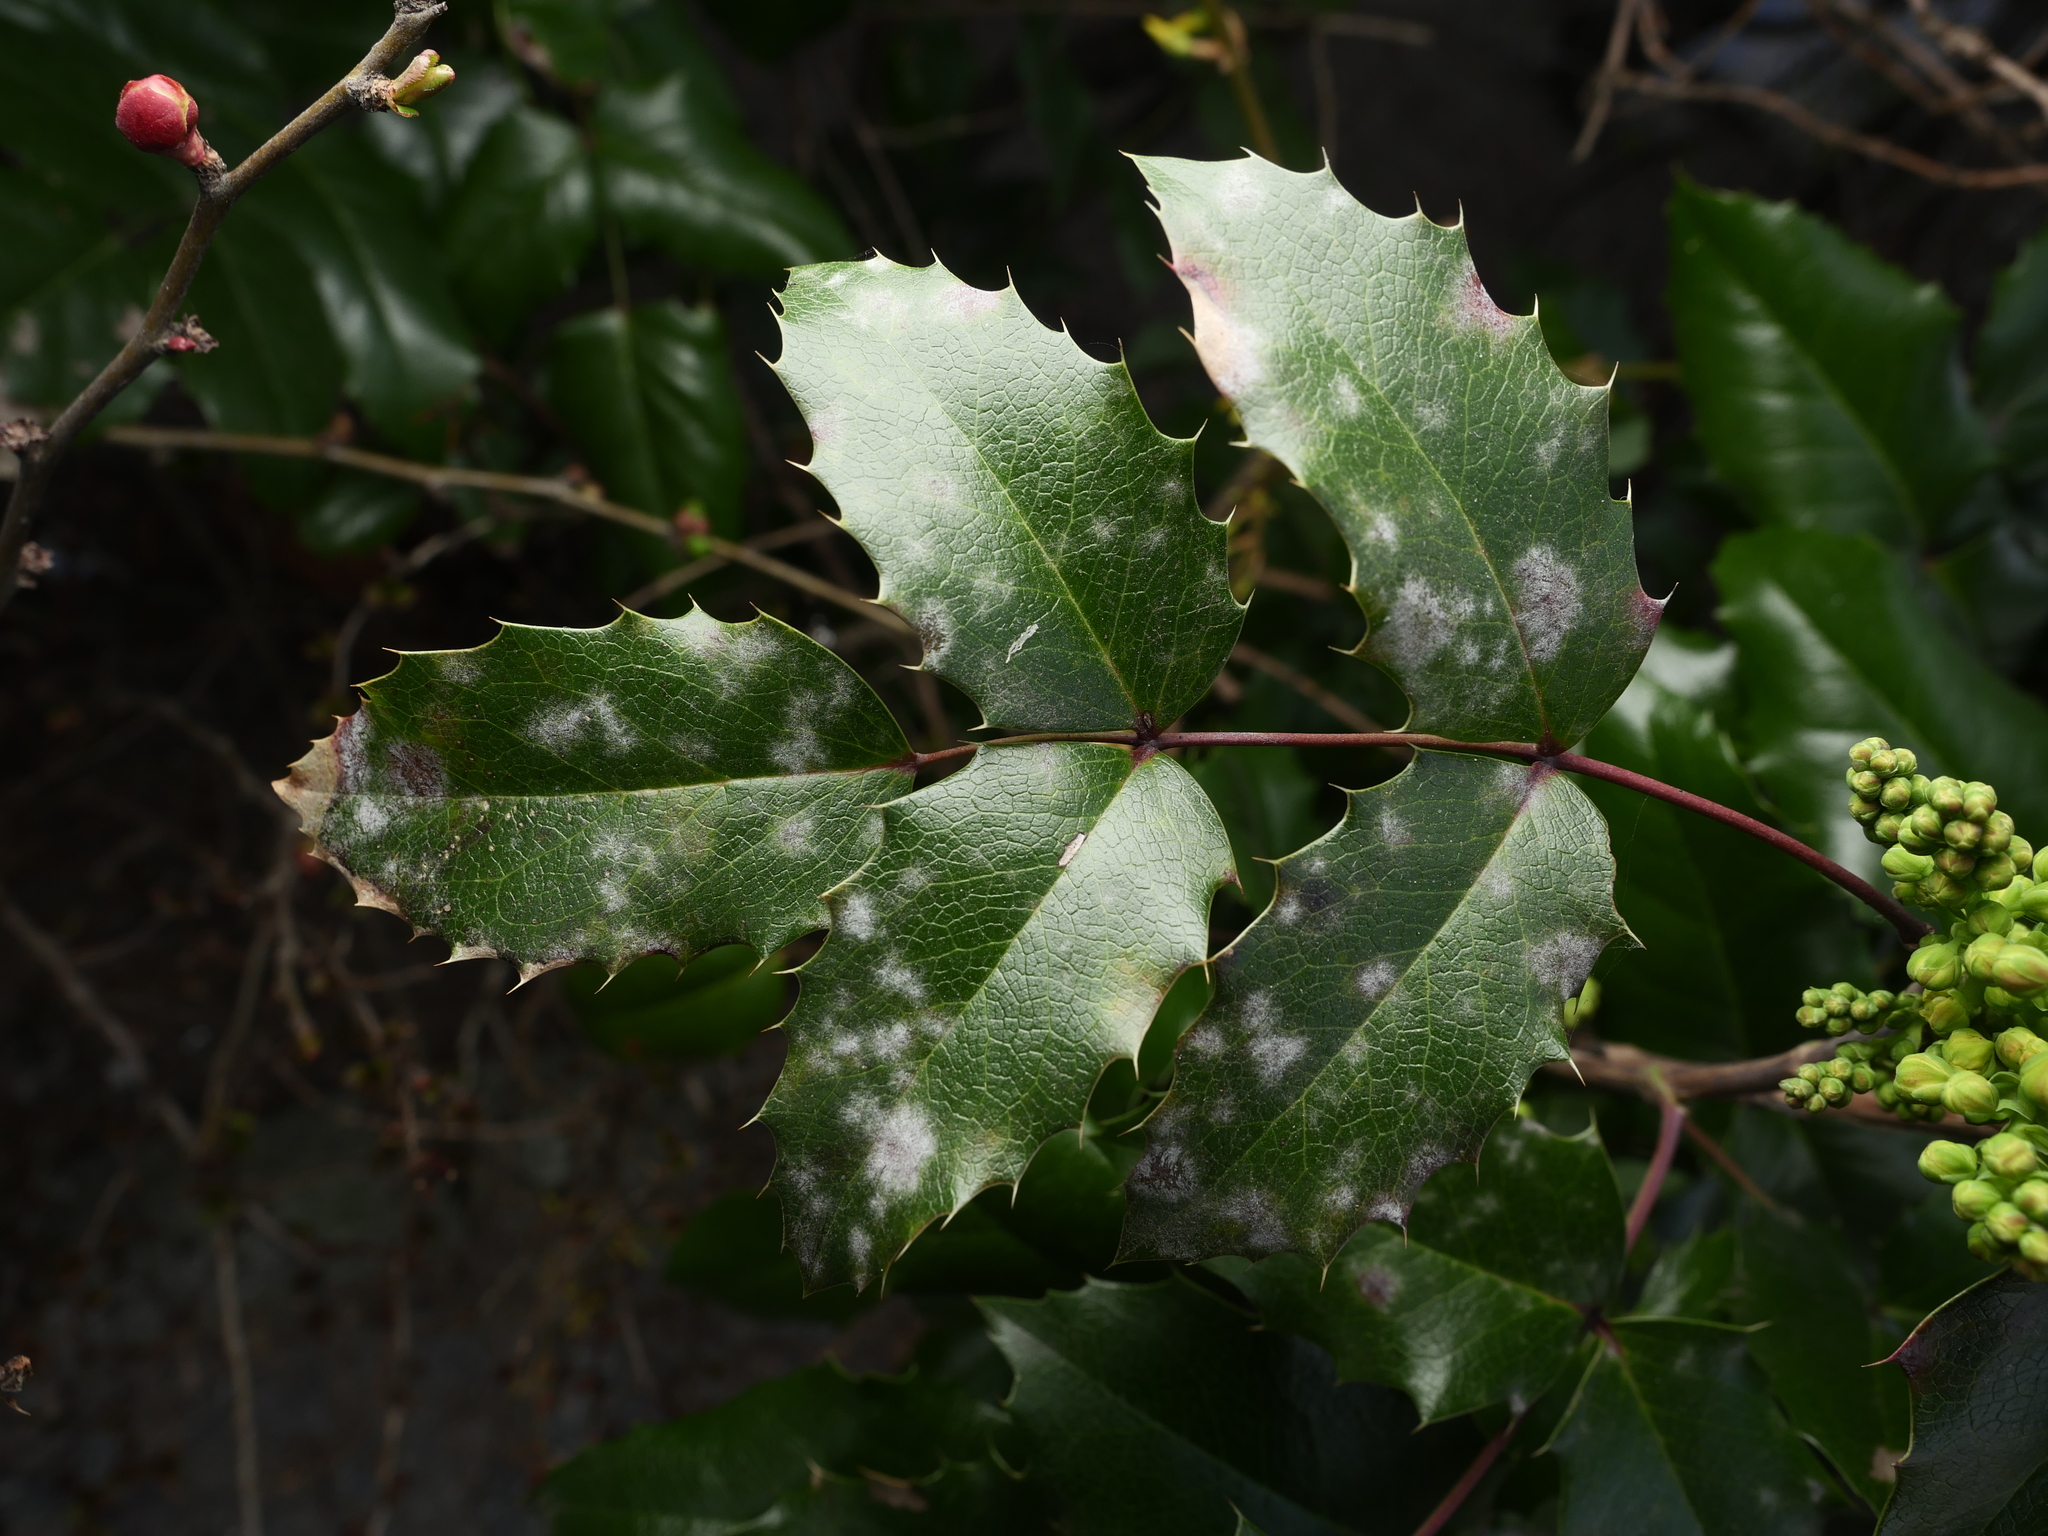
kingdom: Plantae
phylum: Tracheophyta
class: Magnoliopsida
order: Ranunculales
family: Berberidaceae
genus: Mahonia
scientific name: Mahonia aquifolium
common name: Oregon-grape
